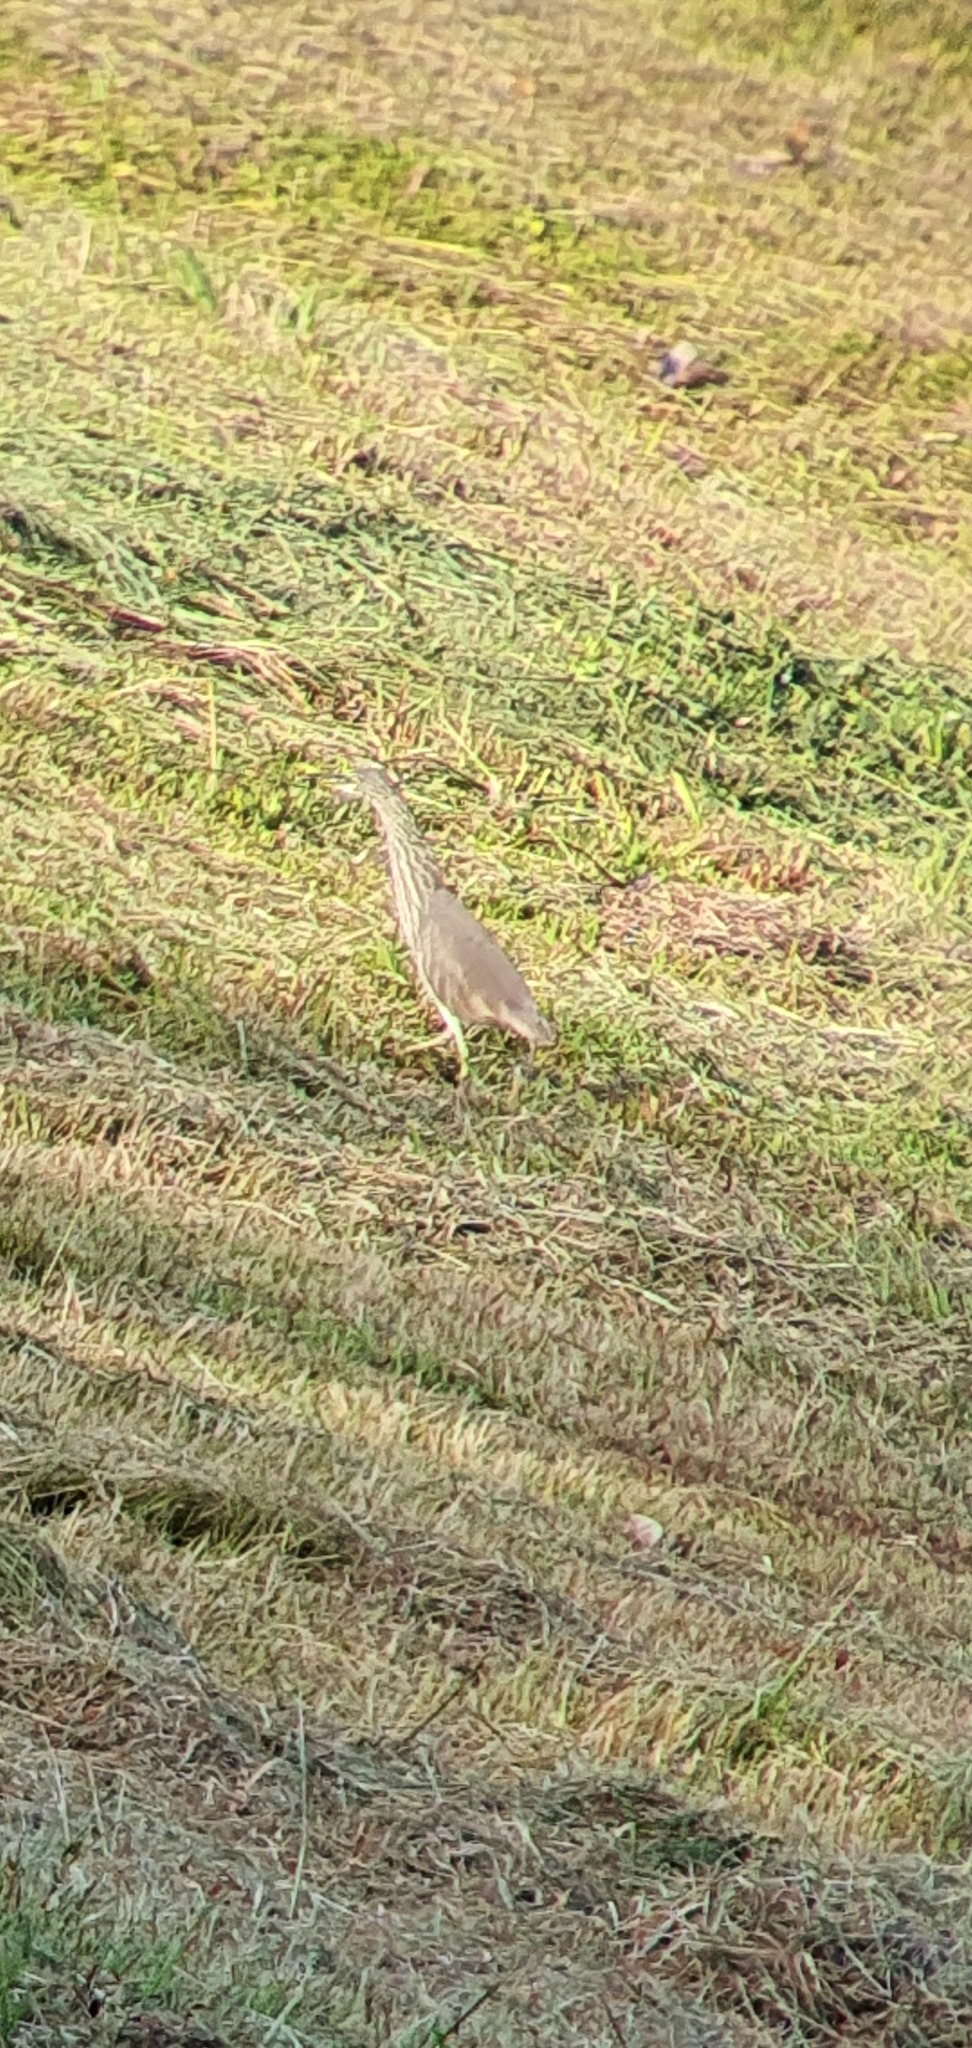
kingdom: Animalia
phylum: Chordata
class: Aves
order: Pelecaniformes
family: Ardeidae
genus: Ardeola
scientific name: Ardeola
